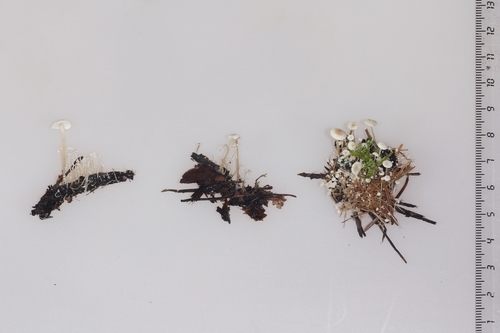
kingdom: Fungi
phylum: Basidiomycota
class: Agaricomycetes
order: Agaricales
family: Tricholomataceae
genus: Collybia
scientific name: Collybia cirrhata
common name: Piggyback shanklet
